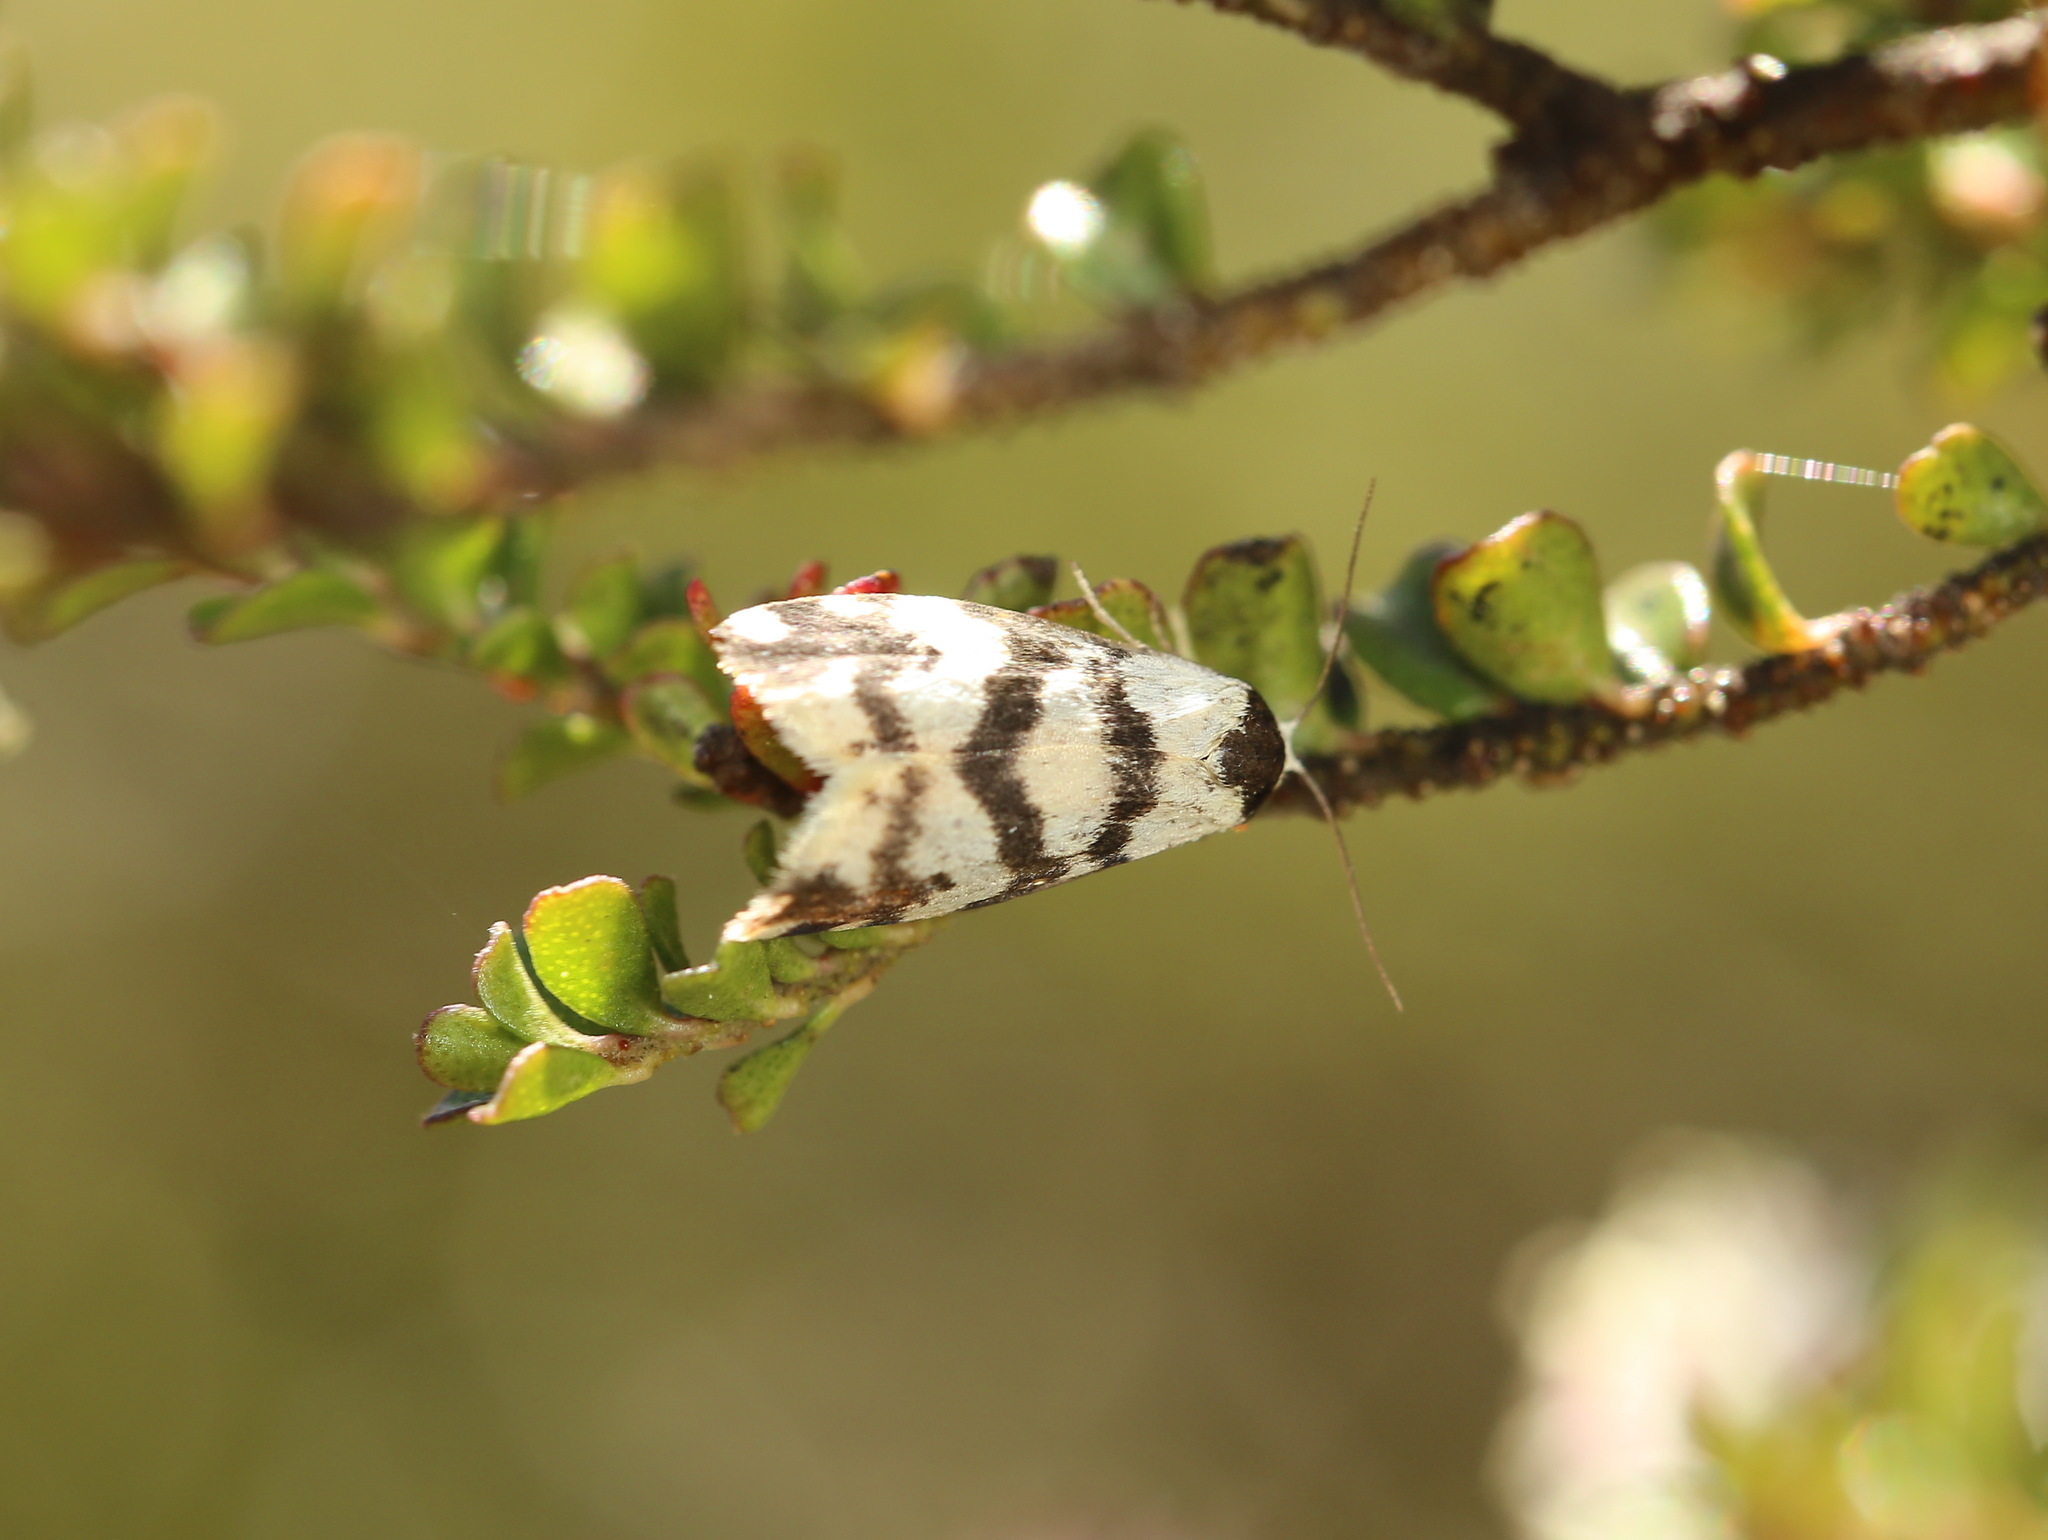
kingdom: Animalia
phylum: Arthropoda
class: Insecta
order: Lepidoptera
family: Erebidae
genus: Thallarcha
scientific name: Thallarcha trissomochla
